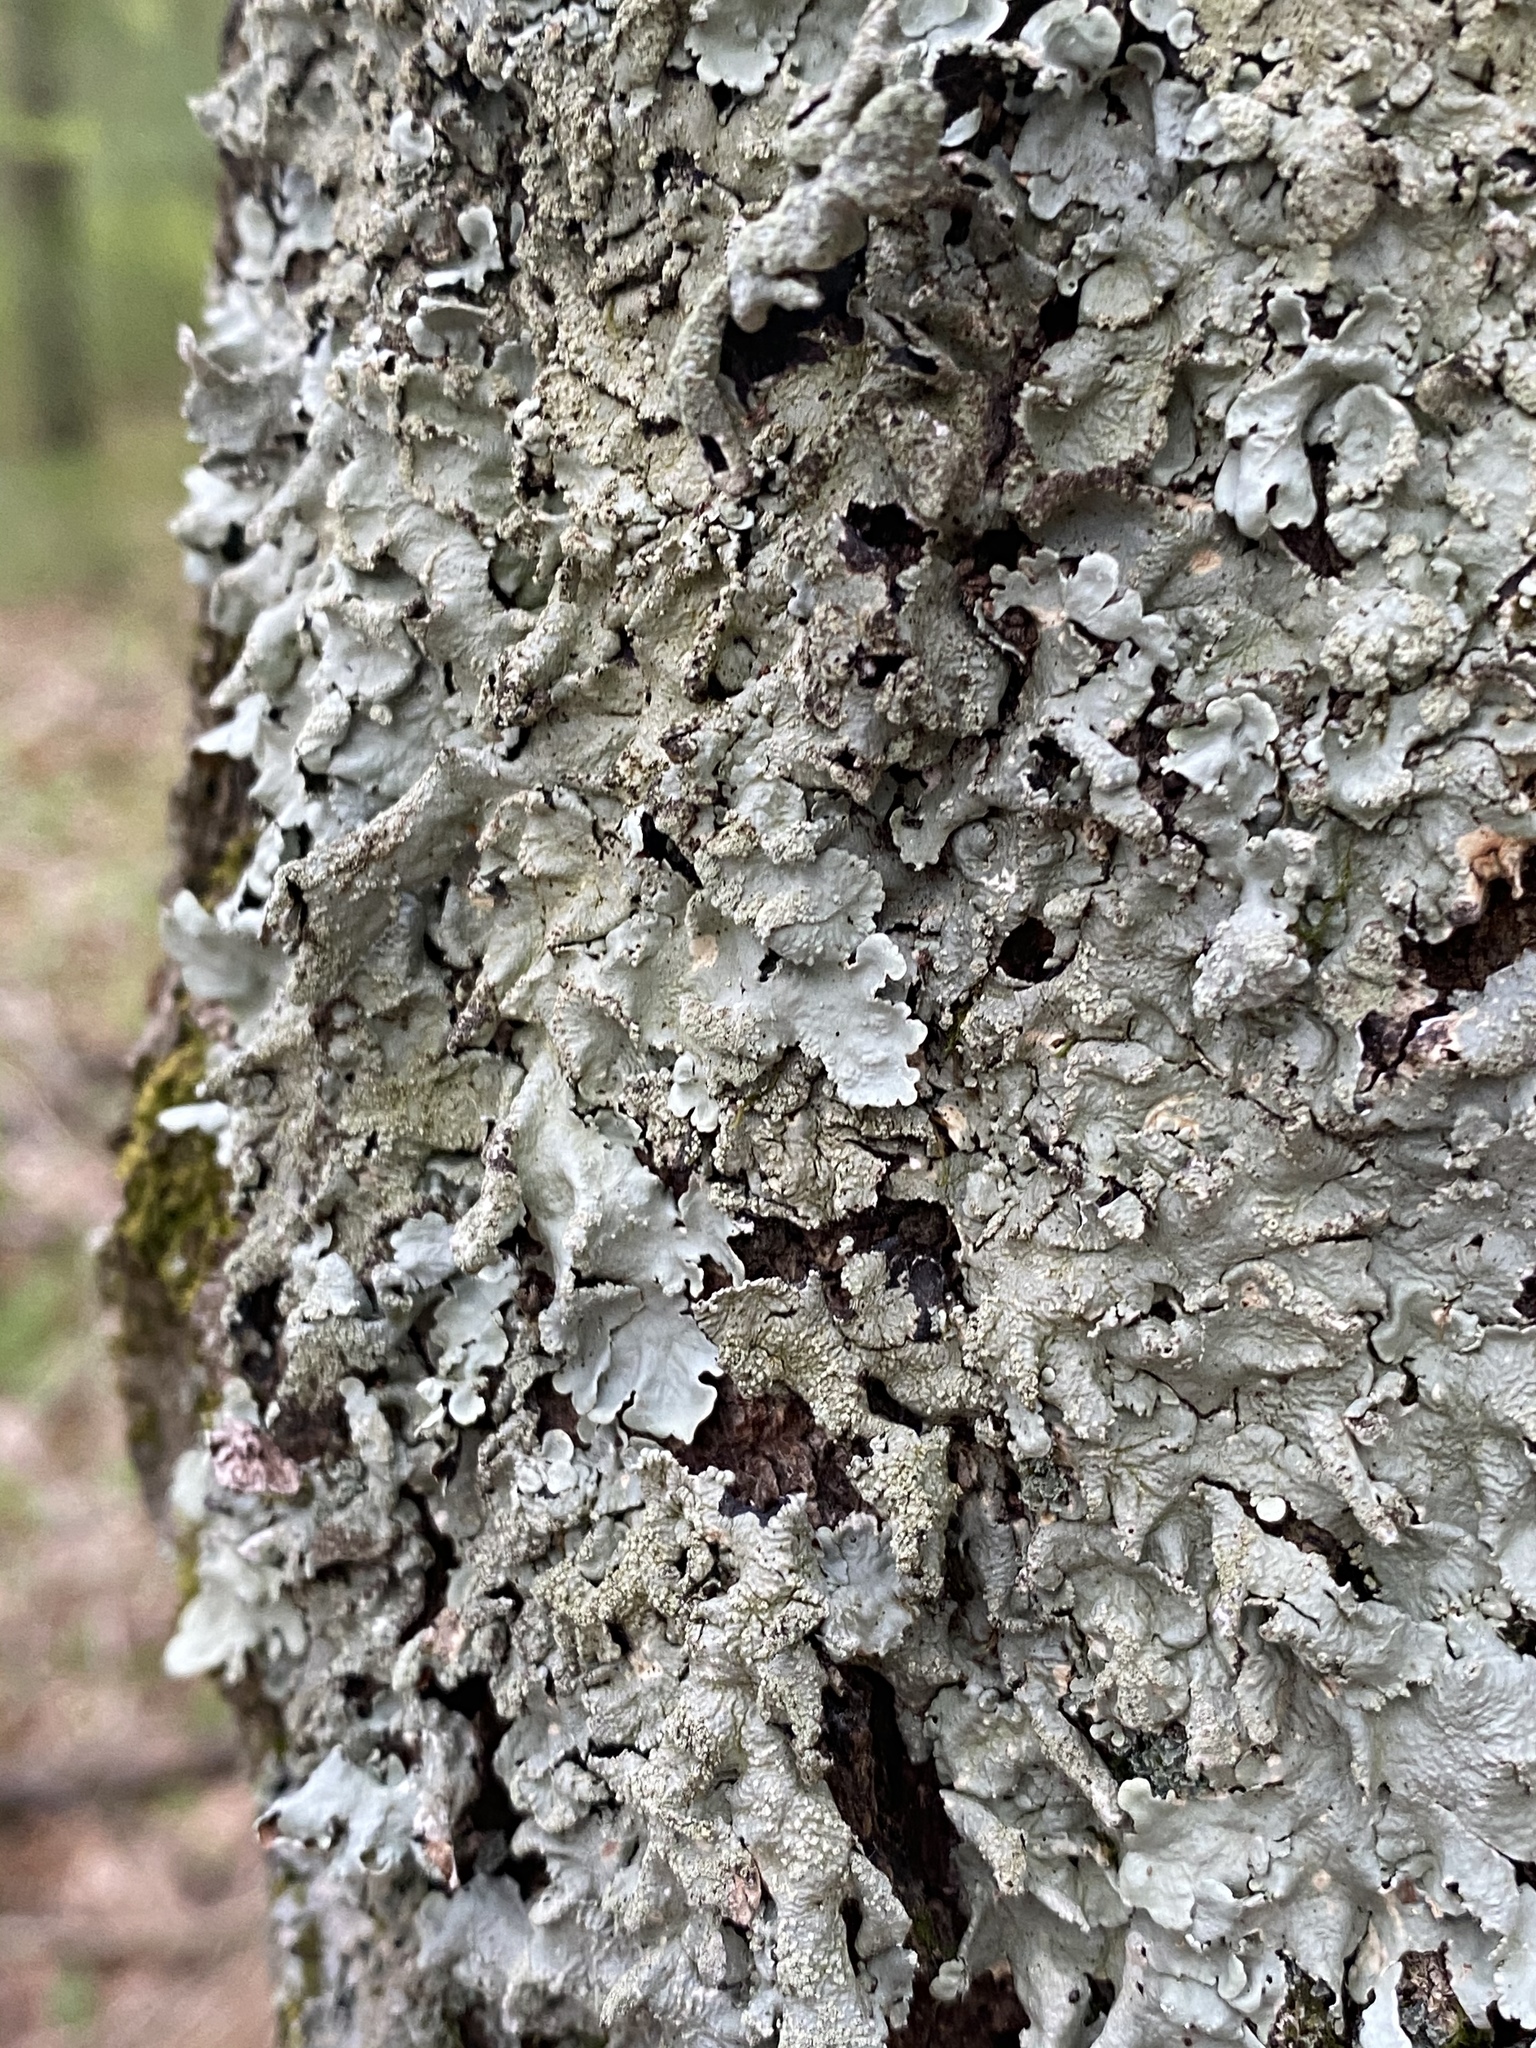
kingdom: Fungi
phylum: Ascomycota
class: Lecanoromycetes
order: Lecanorales
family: Parmeliaceae
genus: Flavoparmelia
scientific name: Flavoparmelia caperata
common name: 40-mile per hour lichen
